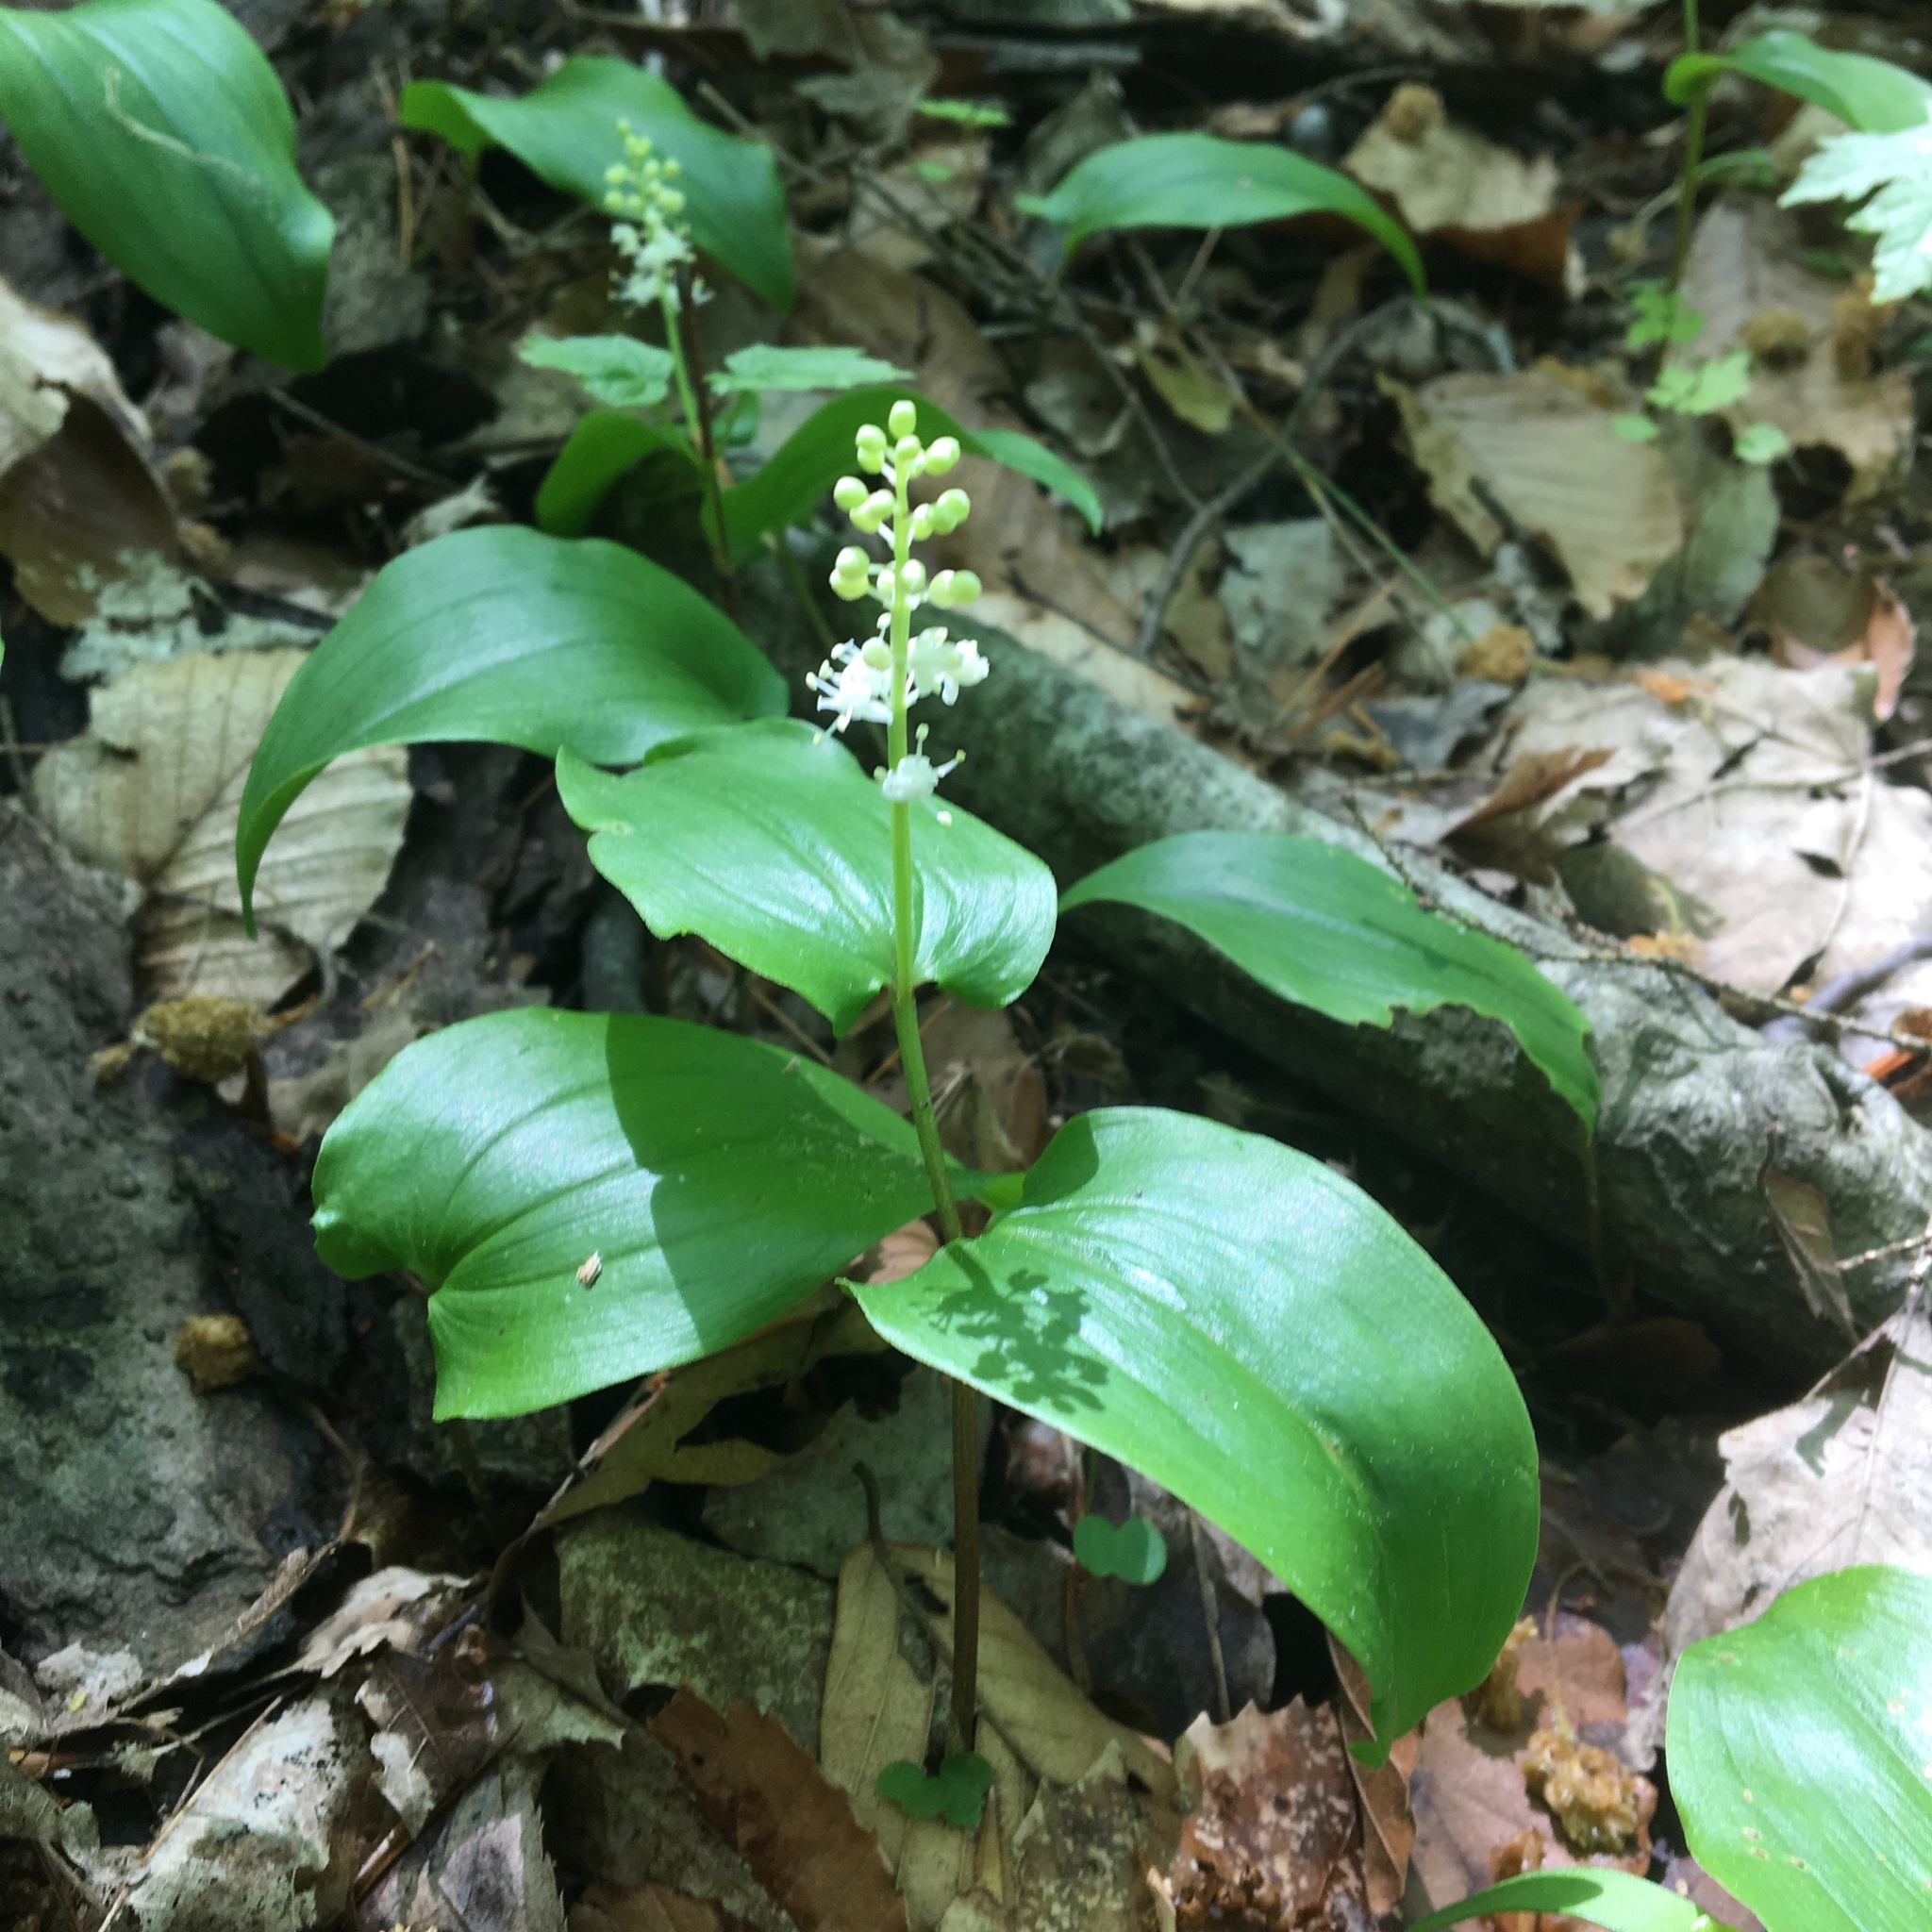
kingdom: Plantae
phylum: Tracheophyta
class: Liliopsida
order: Asparagales
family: Asparagaceae
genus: Maianthemum
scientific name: Maianthemum canadense
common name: False lily-of-the-valley
